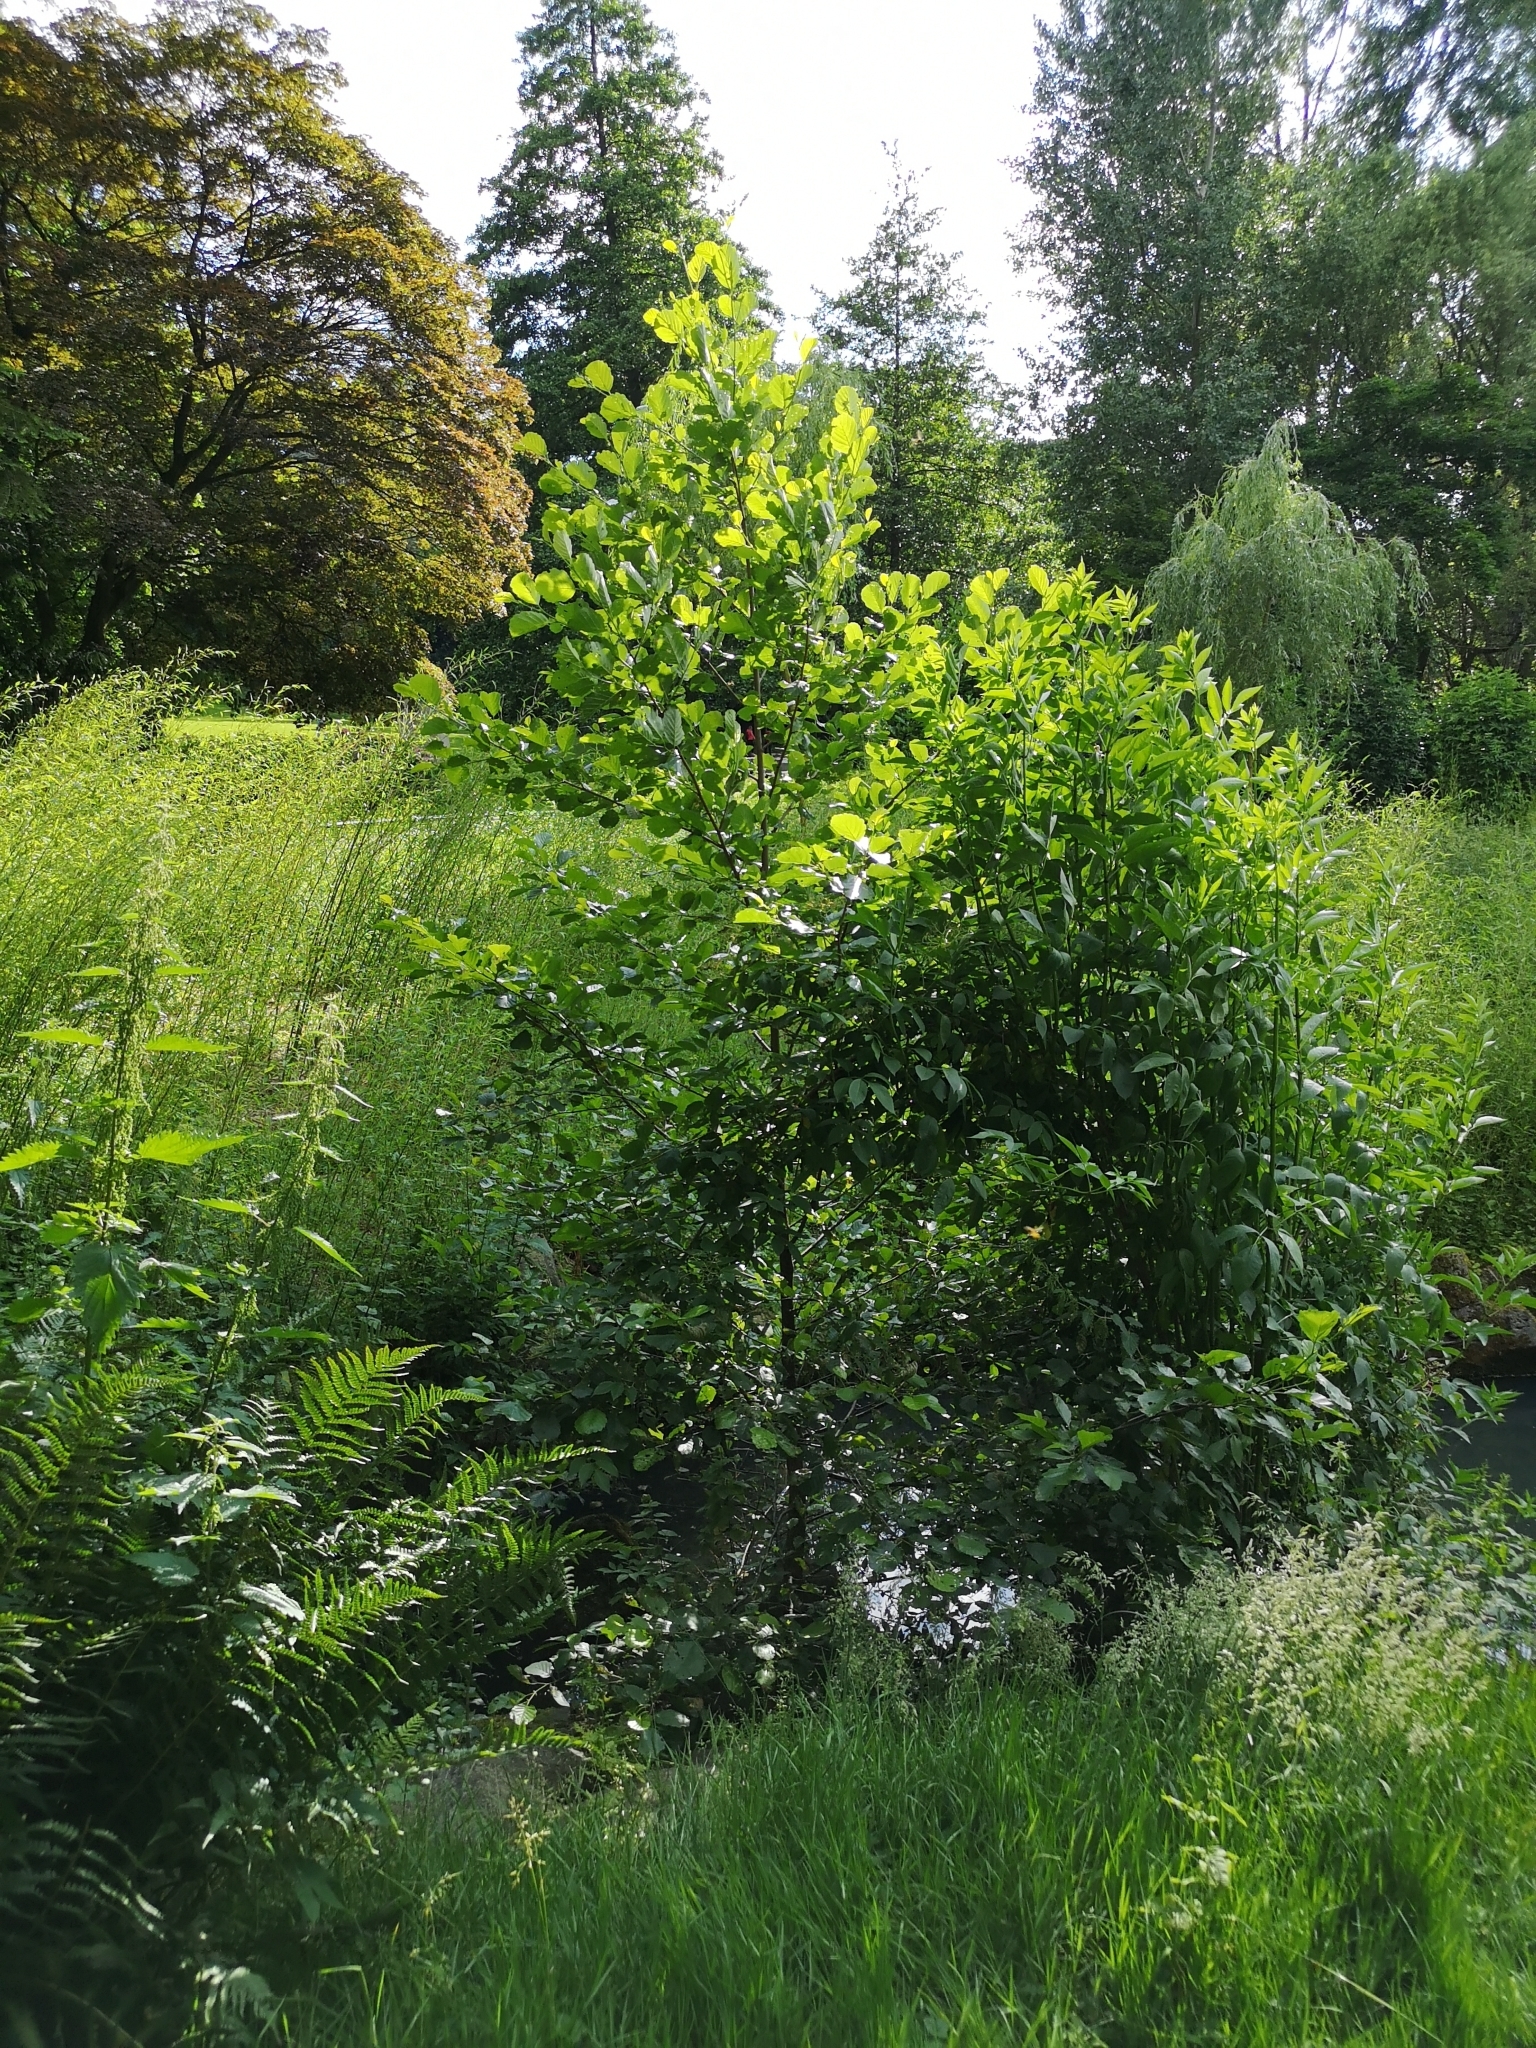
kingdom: Plantae
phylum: Tracheophyta
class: Magnoliopsida
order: Fagales
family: Betulaceae
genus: Alnus
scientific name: Alnus glutinosa
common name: Black alder
